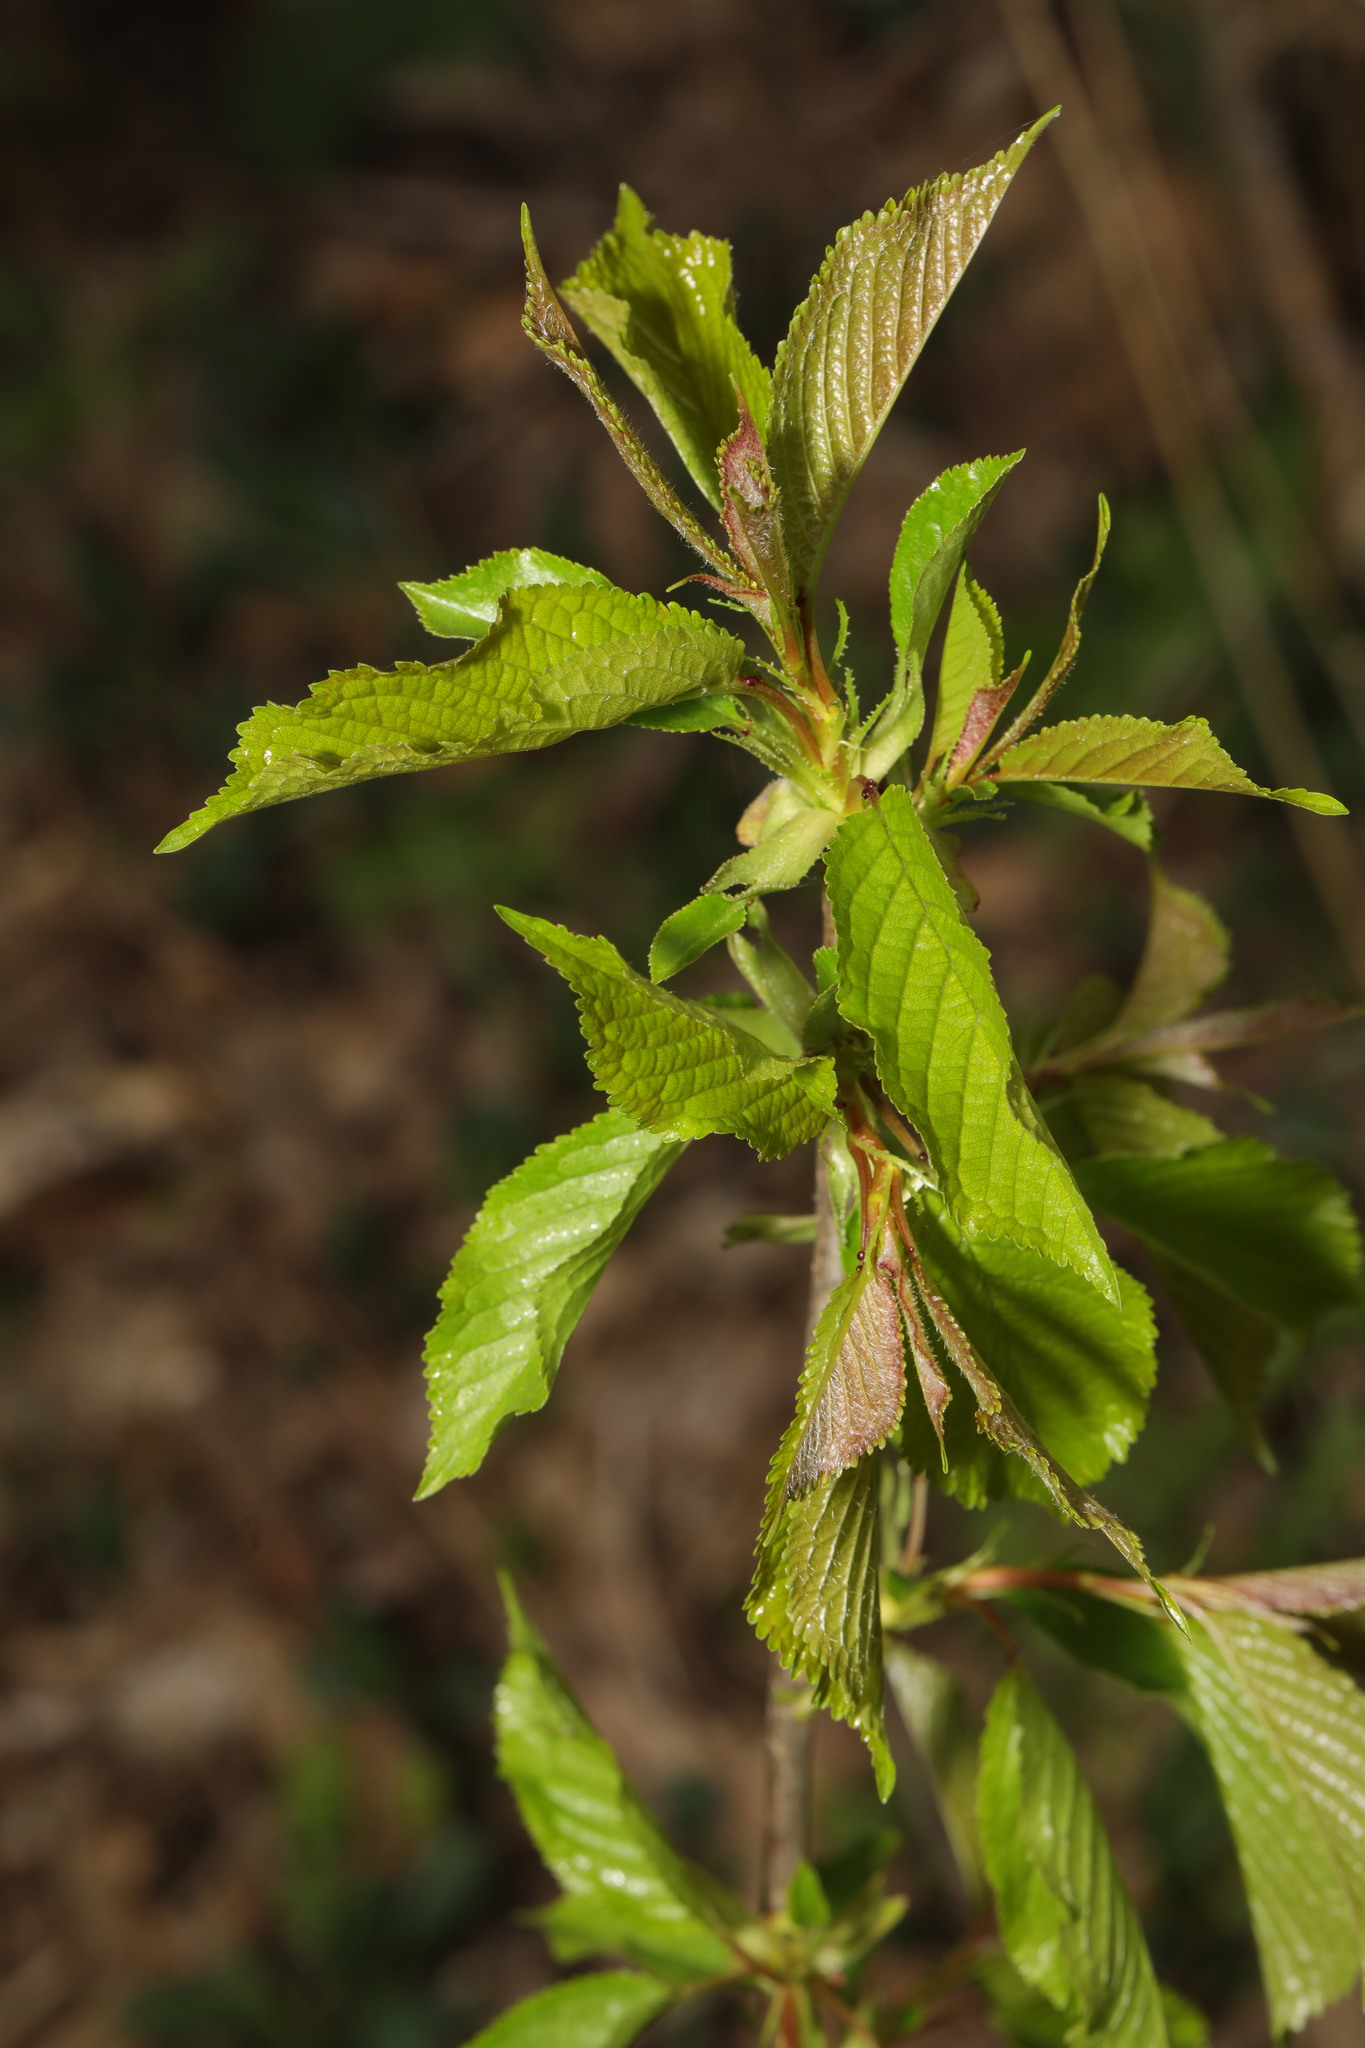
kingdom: Plantae
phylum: Tracheophyta
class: Magnoliopsida
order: Rosales
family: Rosaceae
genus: Prunus
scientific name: Prunus avium
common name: Sweet cherry
